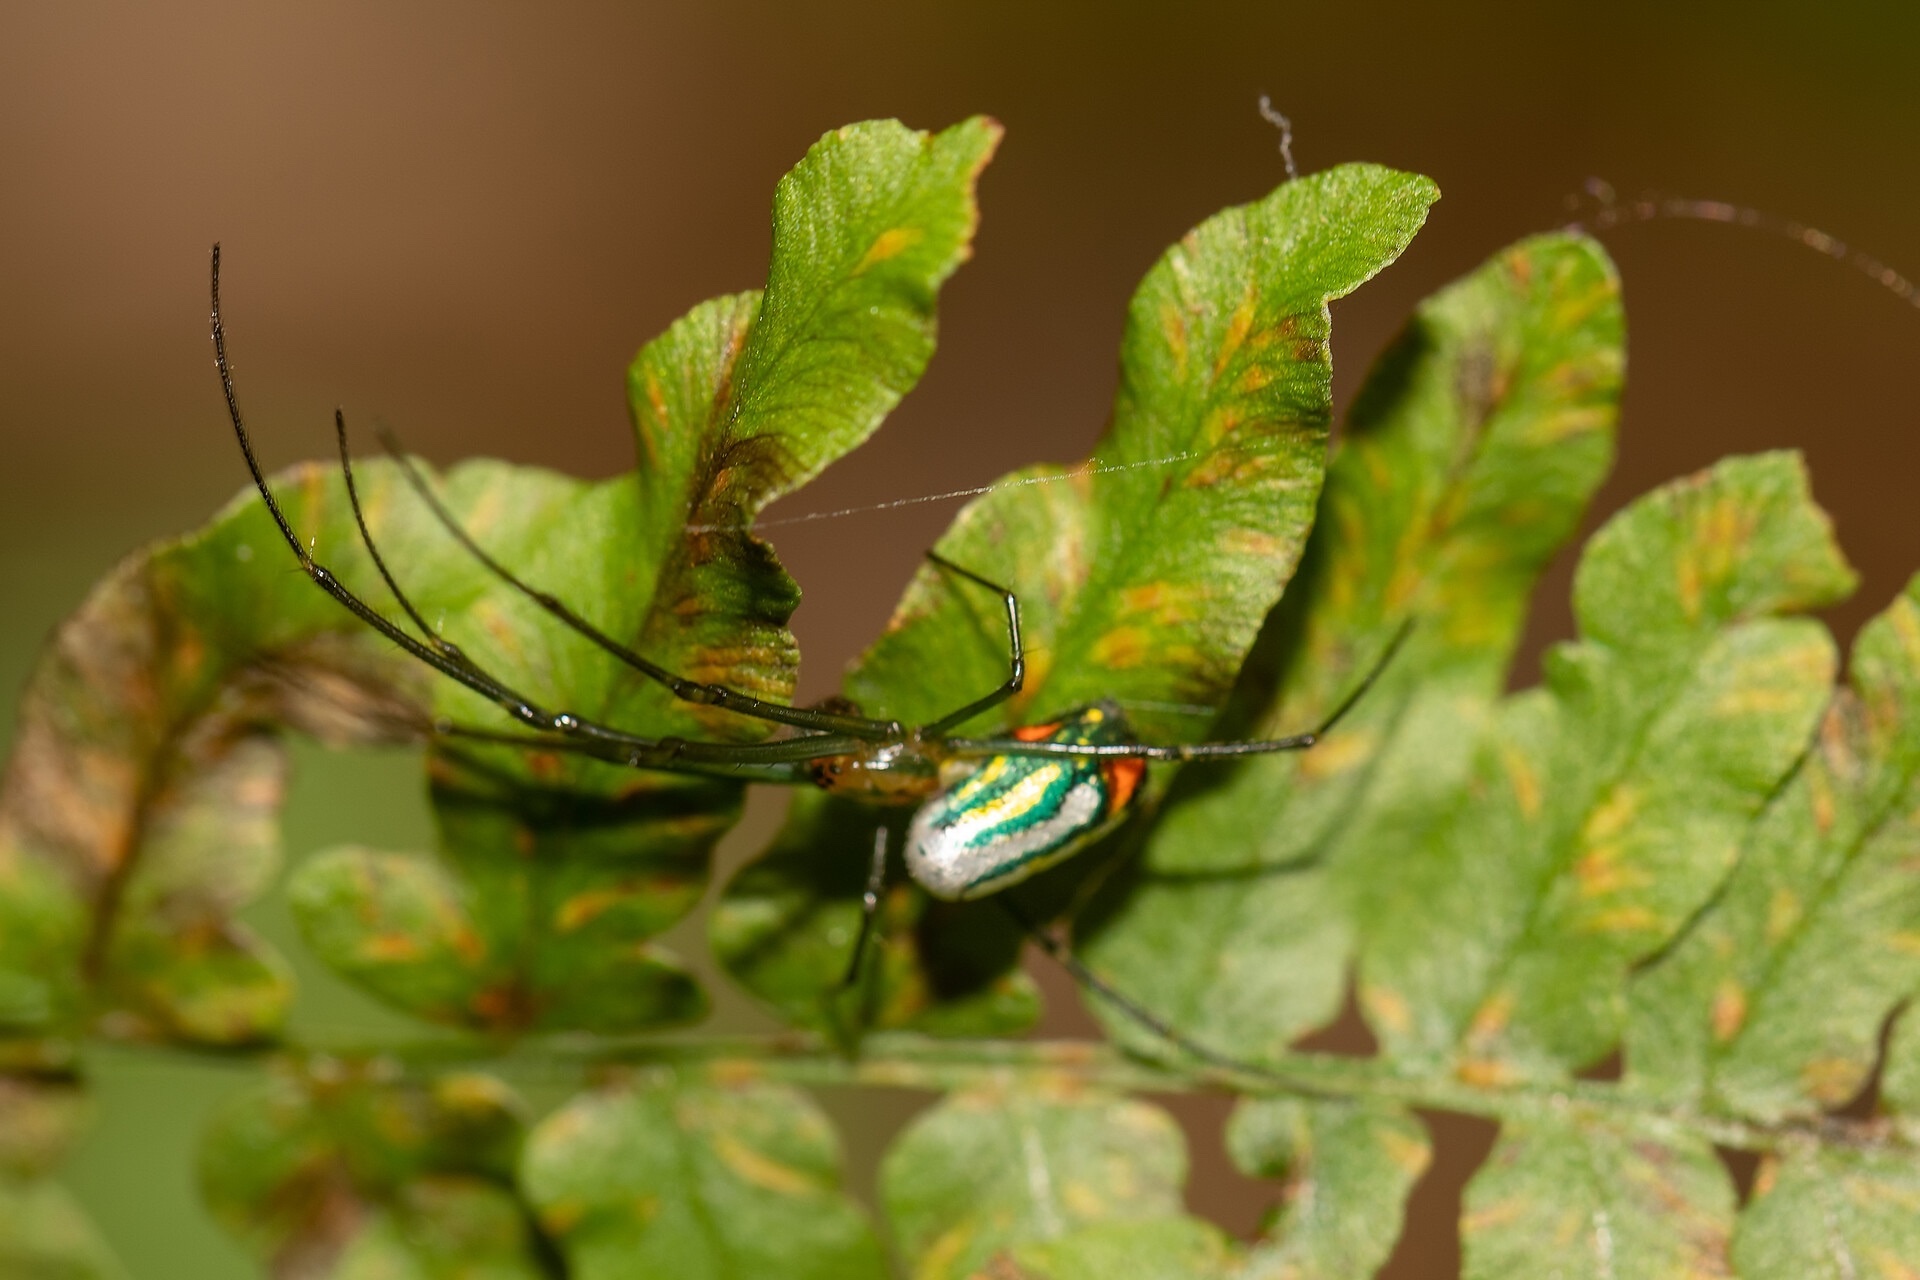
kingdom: Animalia
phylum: Arthropoda
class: Arachnida
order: Araneae
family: Tetragnathidae
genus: Leucauge
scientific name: Leucauge argyrobapta
